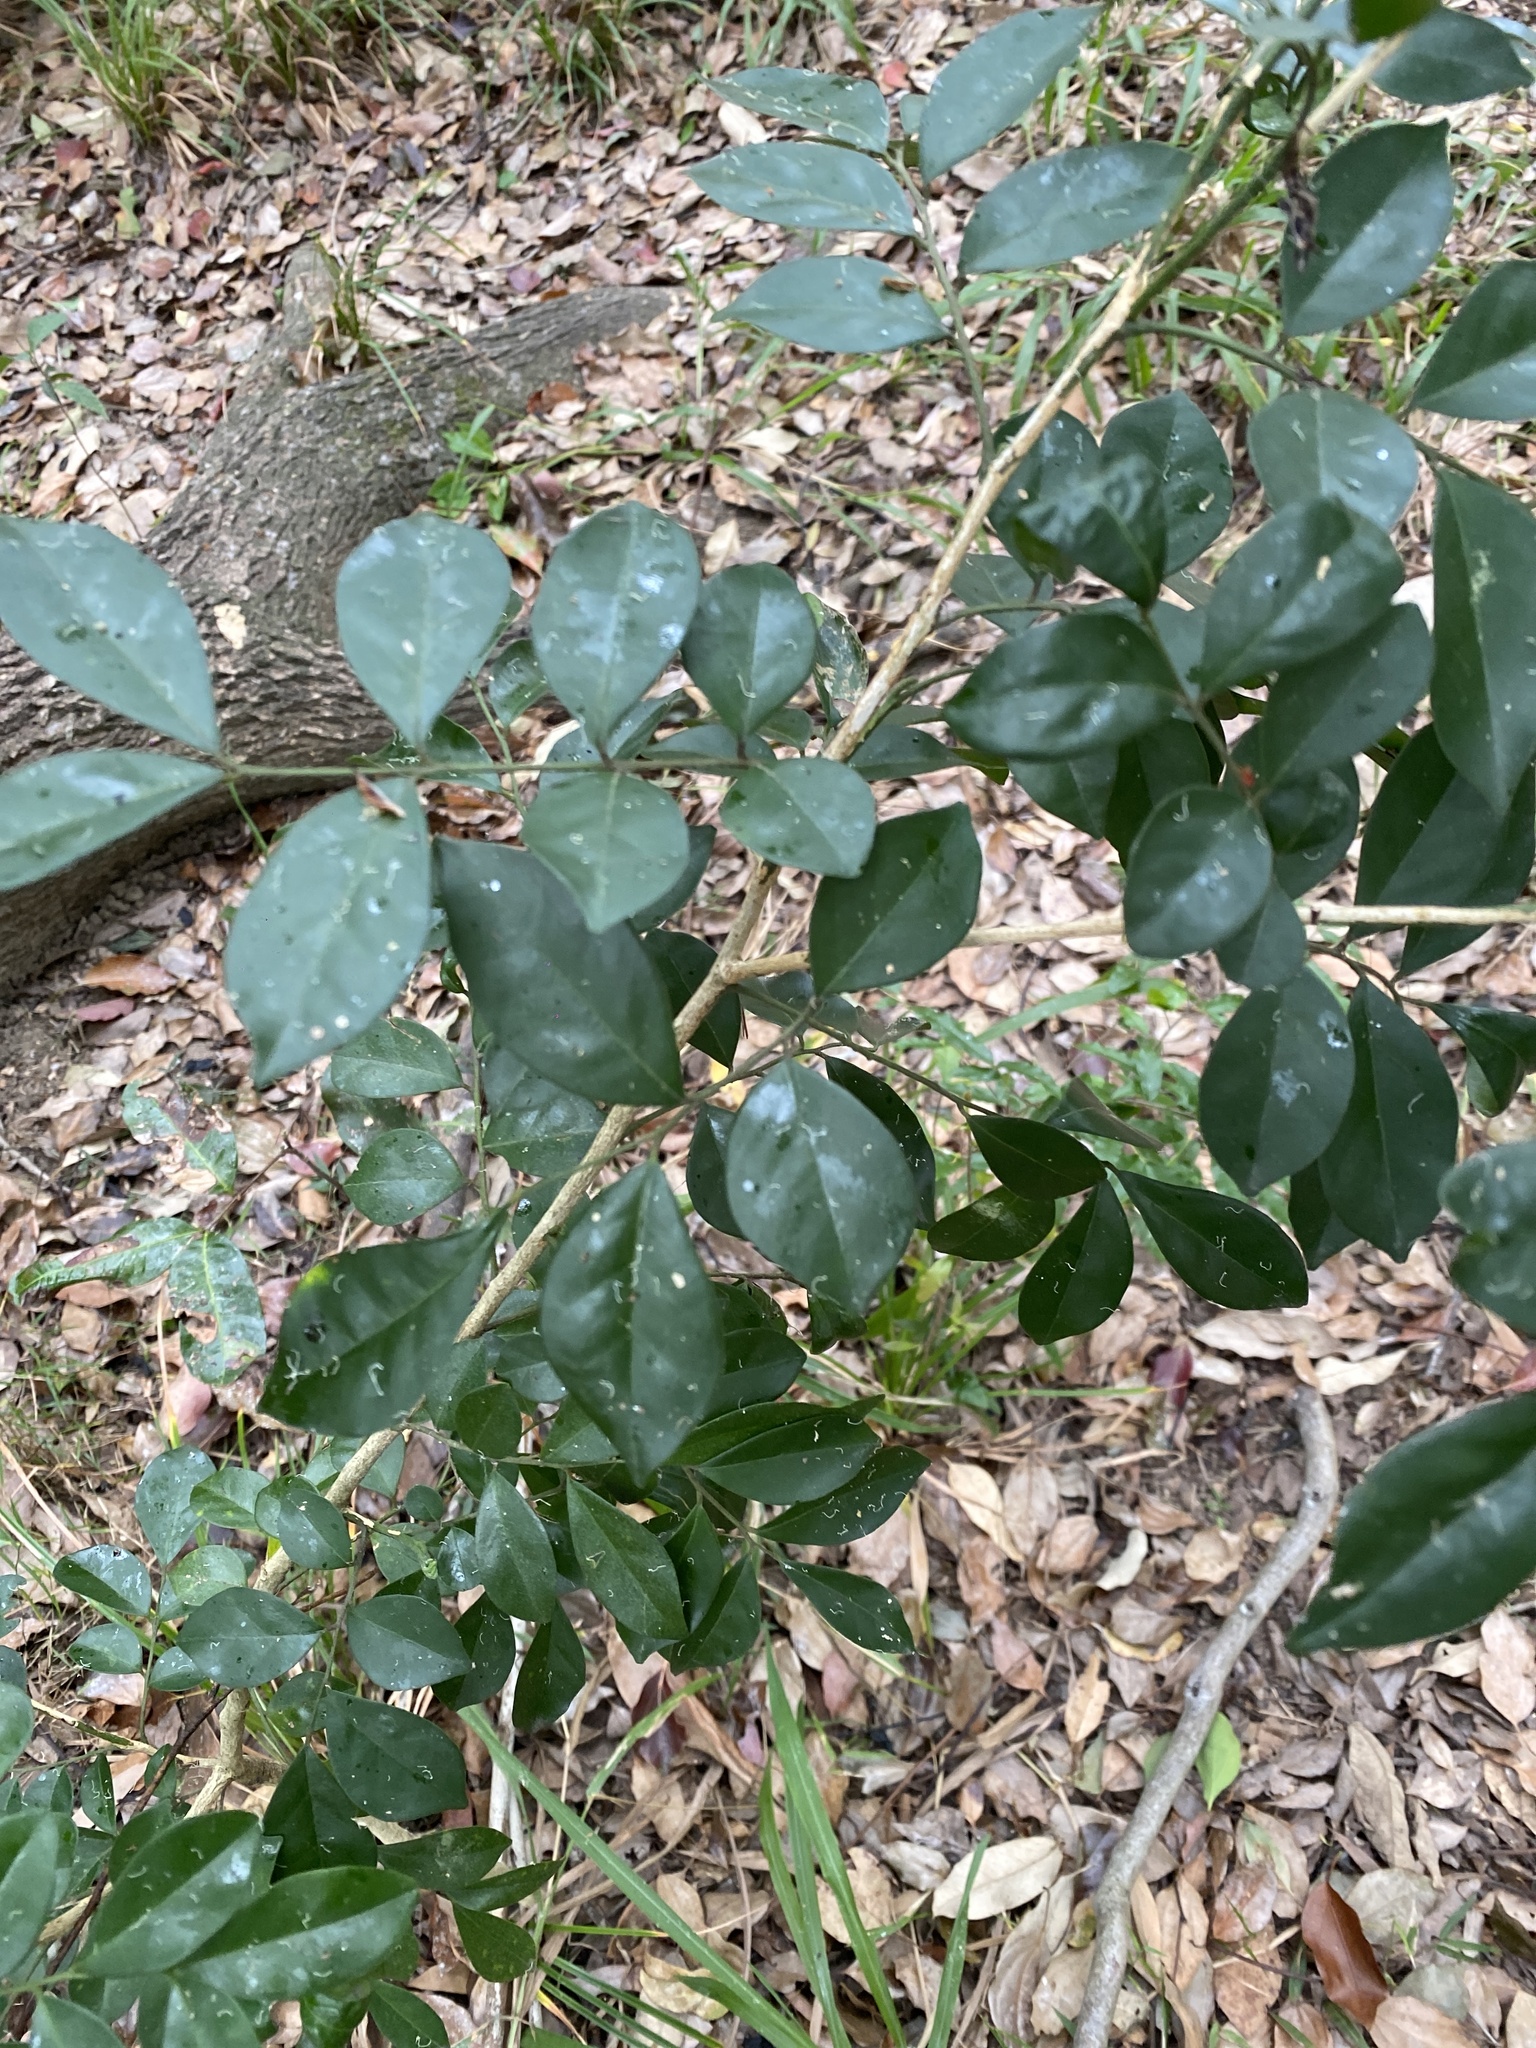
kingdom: Plantae
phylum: Tracheophyta
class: Magnoliopsida
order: Sapindales
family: Rutaceae
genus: Murraya
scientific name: Murraya paniculata
